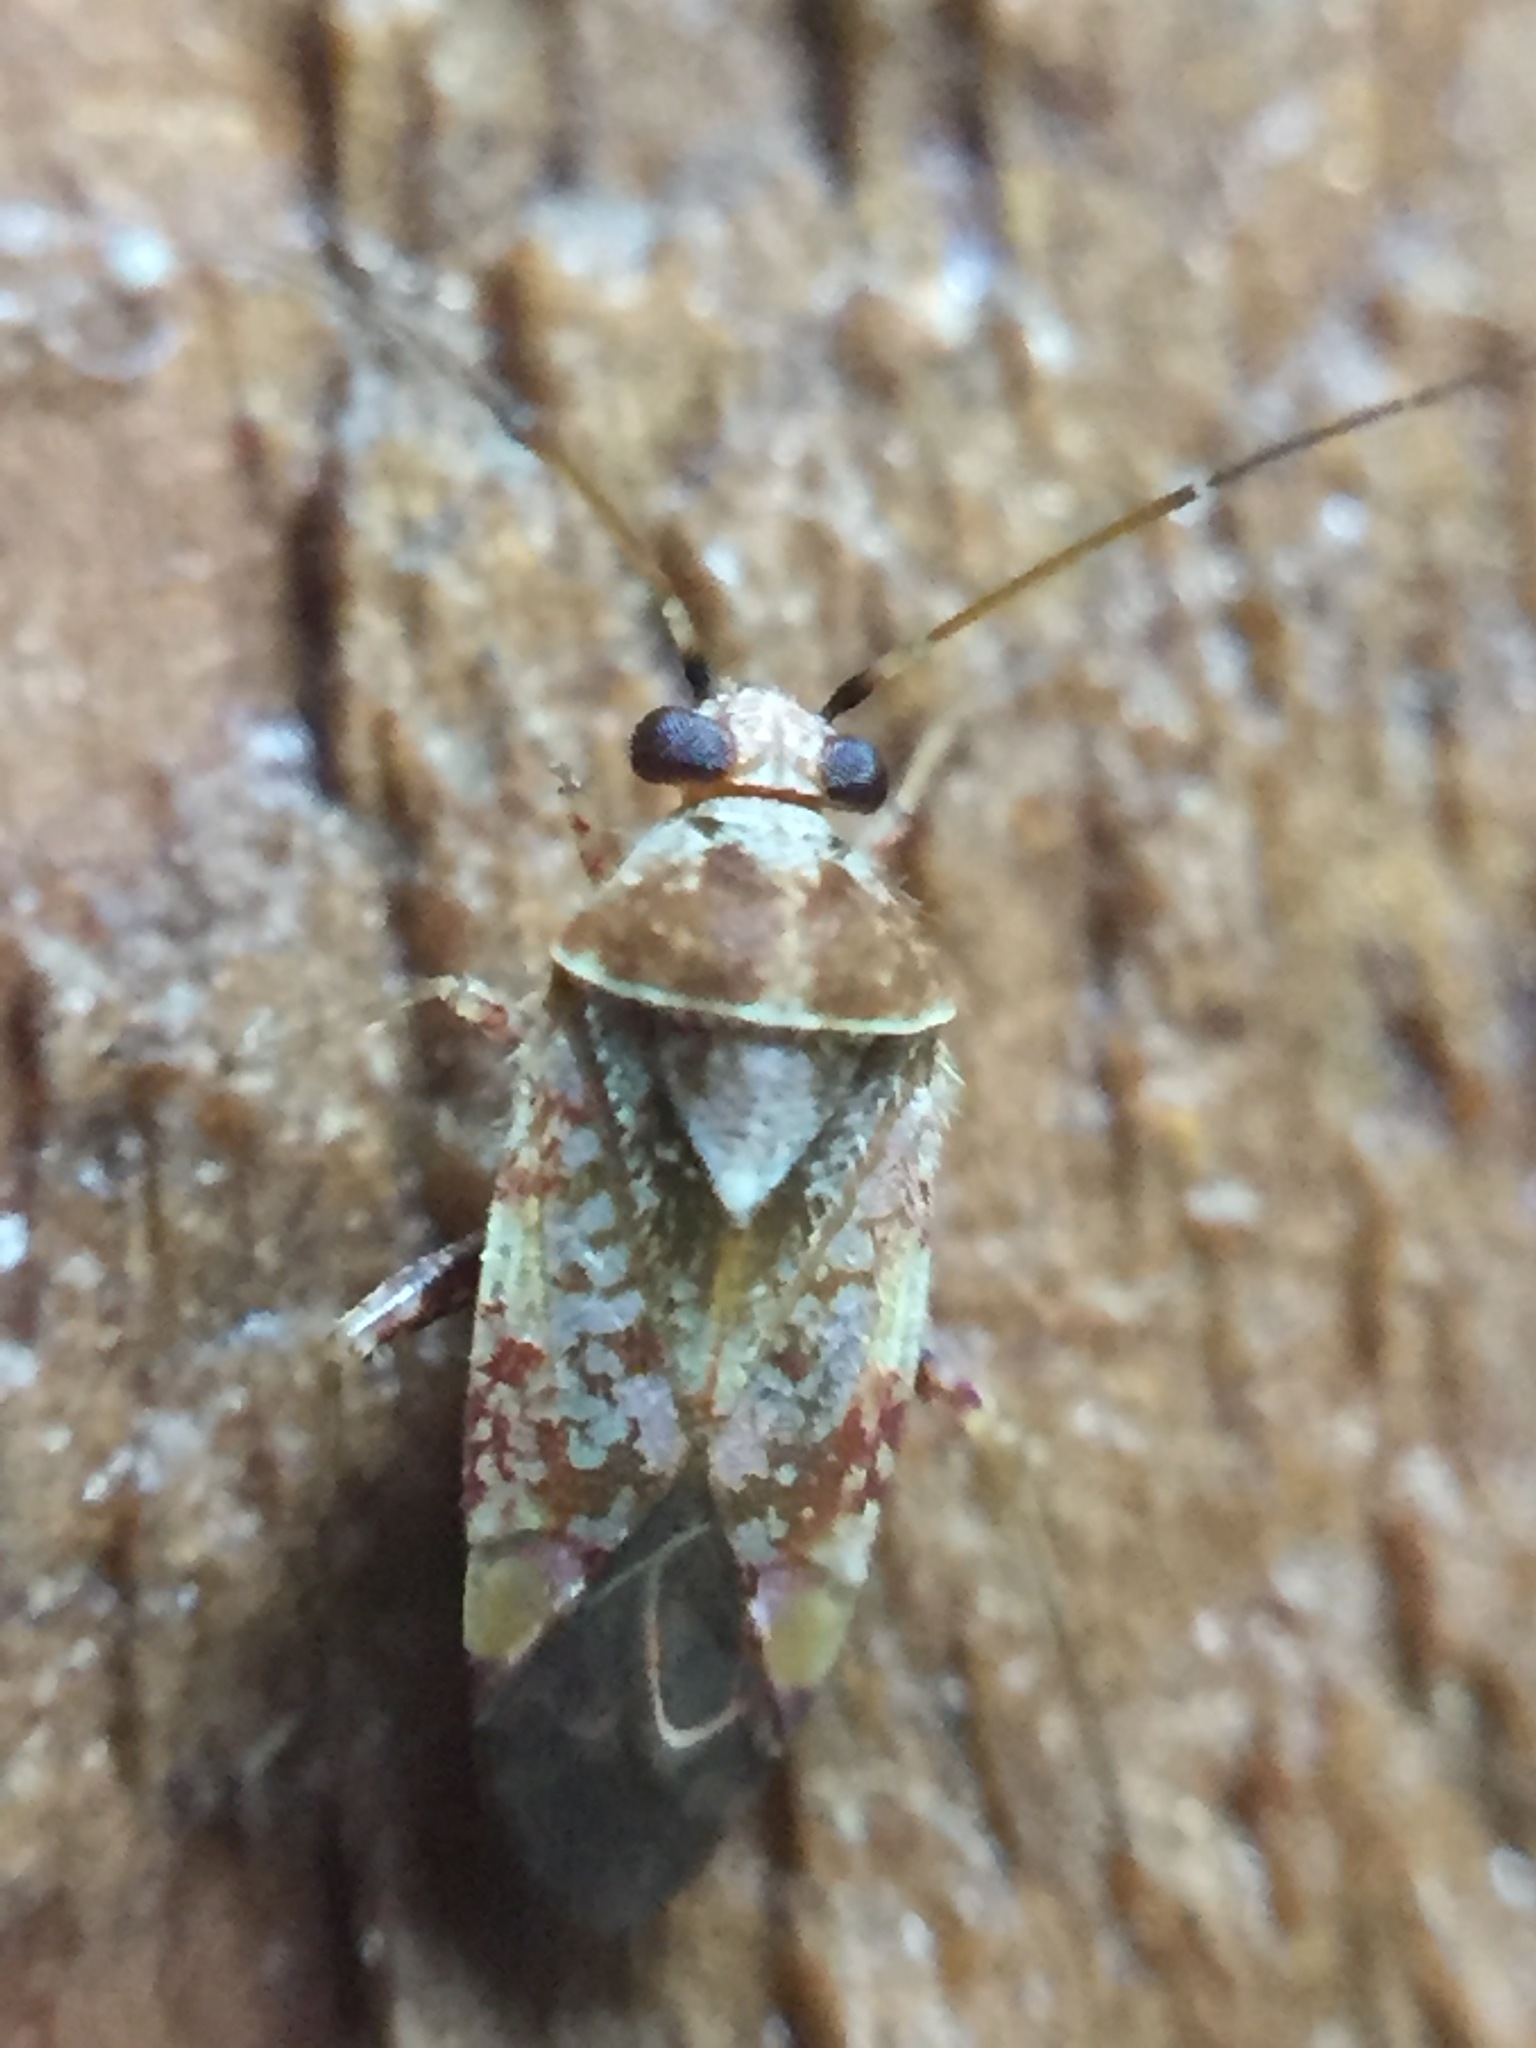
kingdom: Animalia
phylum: Arthropoda
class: Insecta
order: Hemiptera
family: Miridae
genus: Tinginotum
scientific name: Tinginotum minutum
